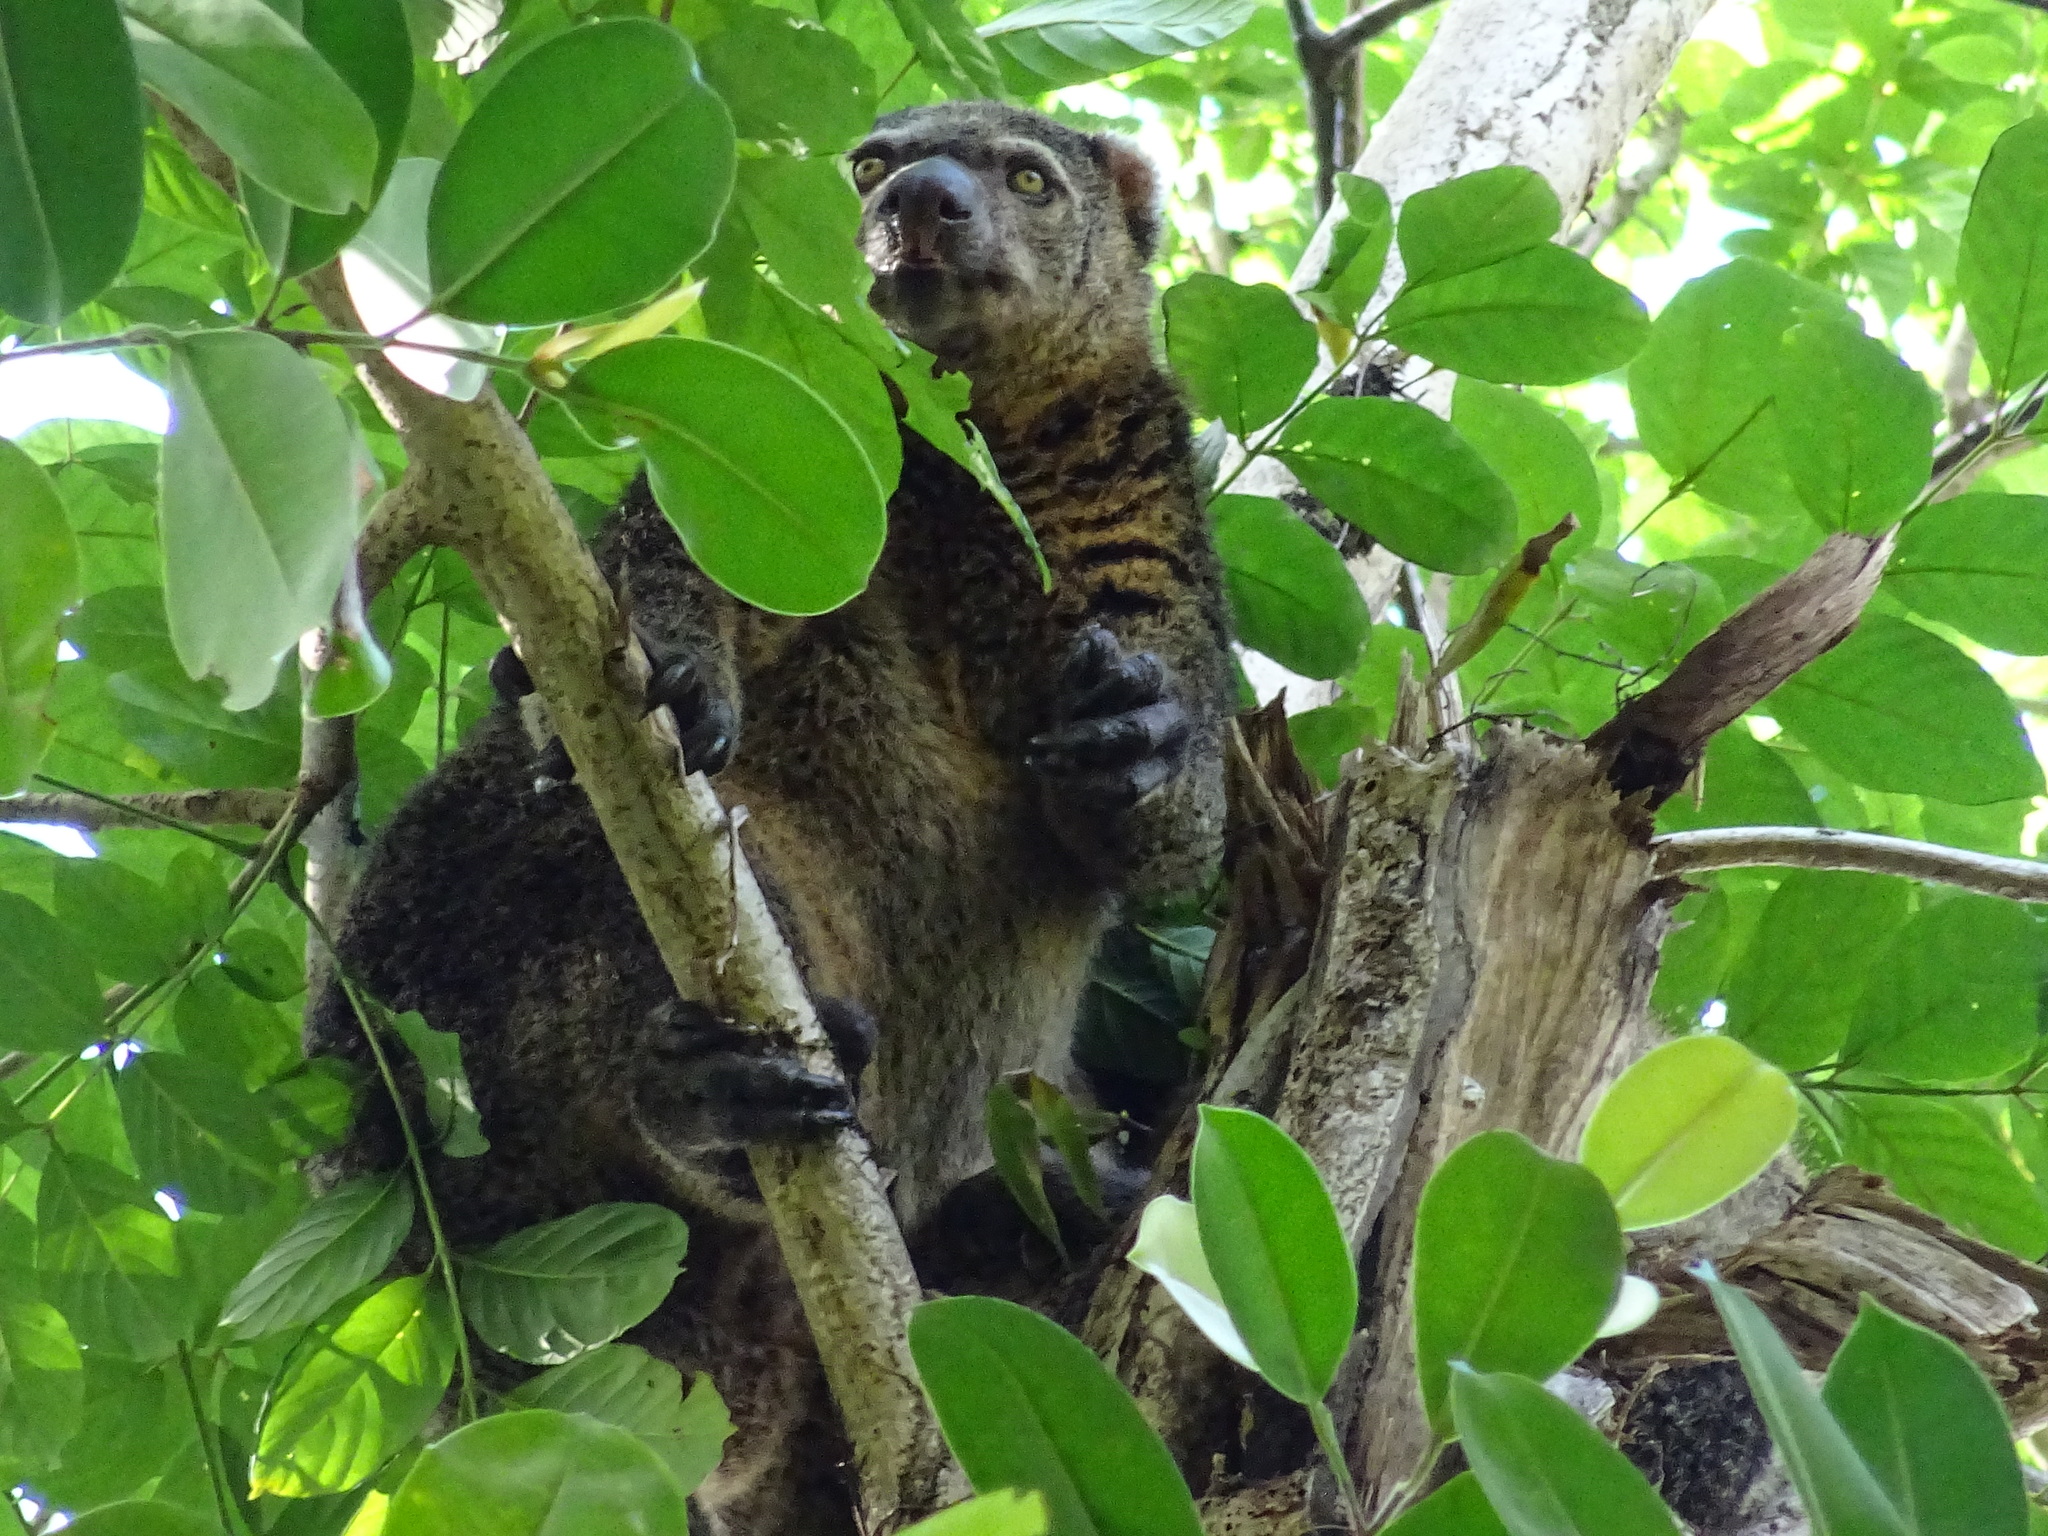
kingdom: Animalia
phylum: Chordata
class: Mammalia
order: Diprotodontia
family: Phalangeridae
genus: Ailurops
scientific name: Ailurops ursinus
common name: Sulawesi bear cuscus
